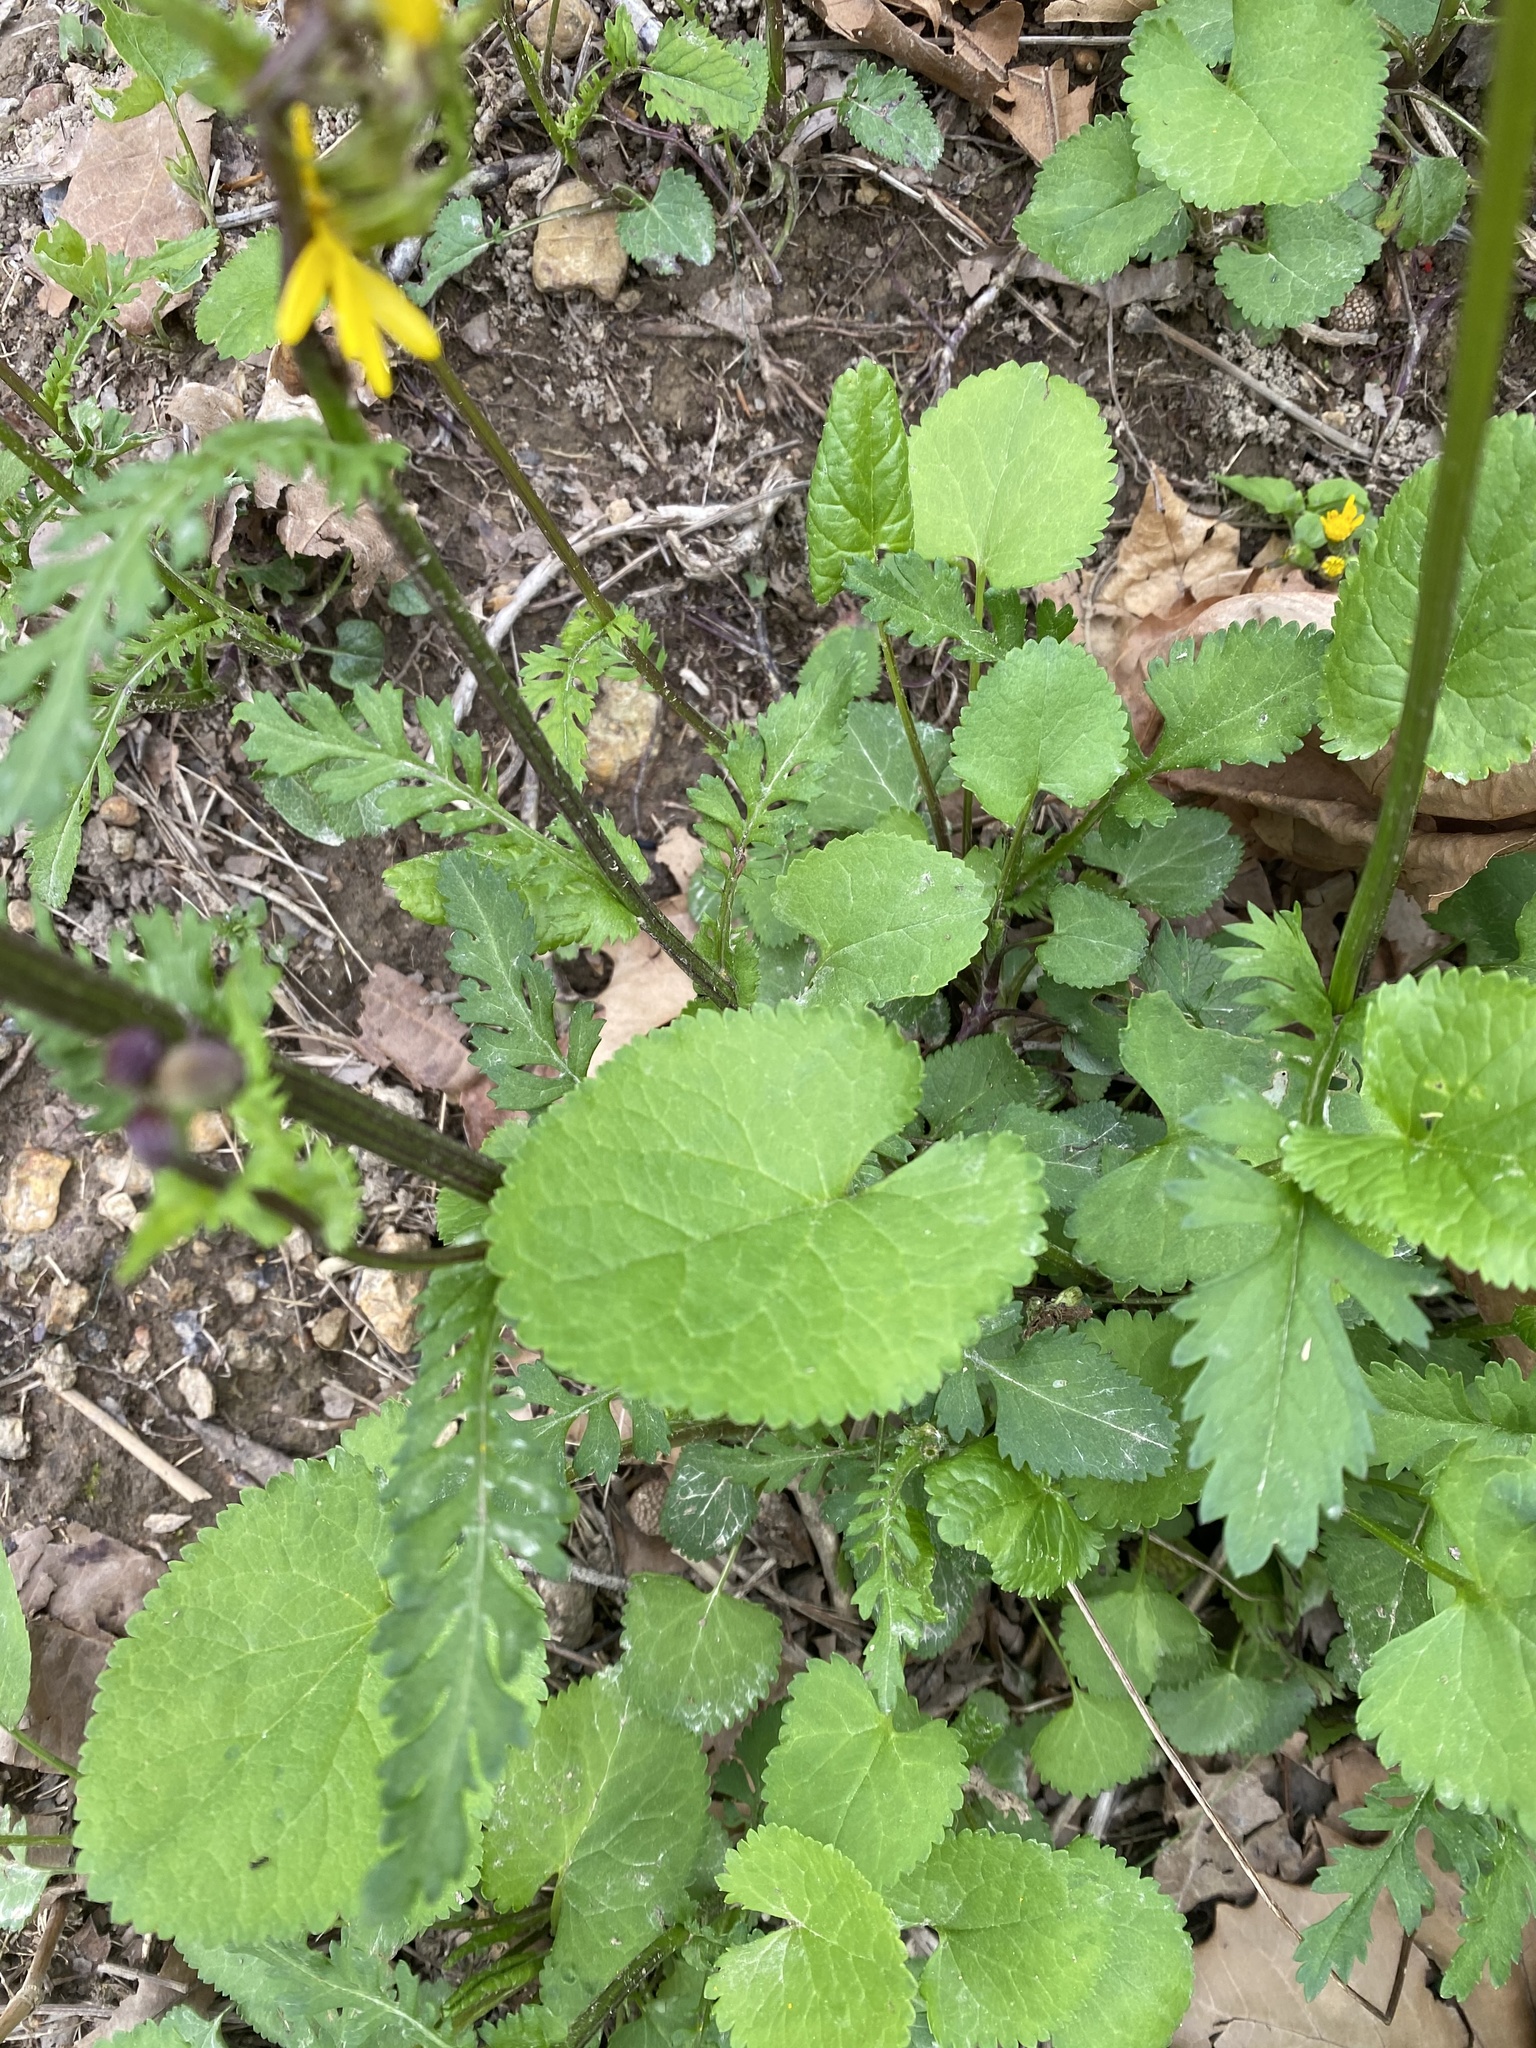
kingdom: Plantae
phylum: Tracheophyta
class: Magnoliopsida
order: Asterales
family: Asteraceae
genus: Packera
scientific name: Packera aurea
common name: Golden groundsel
